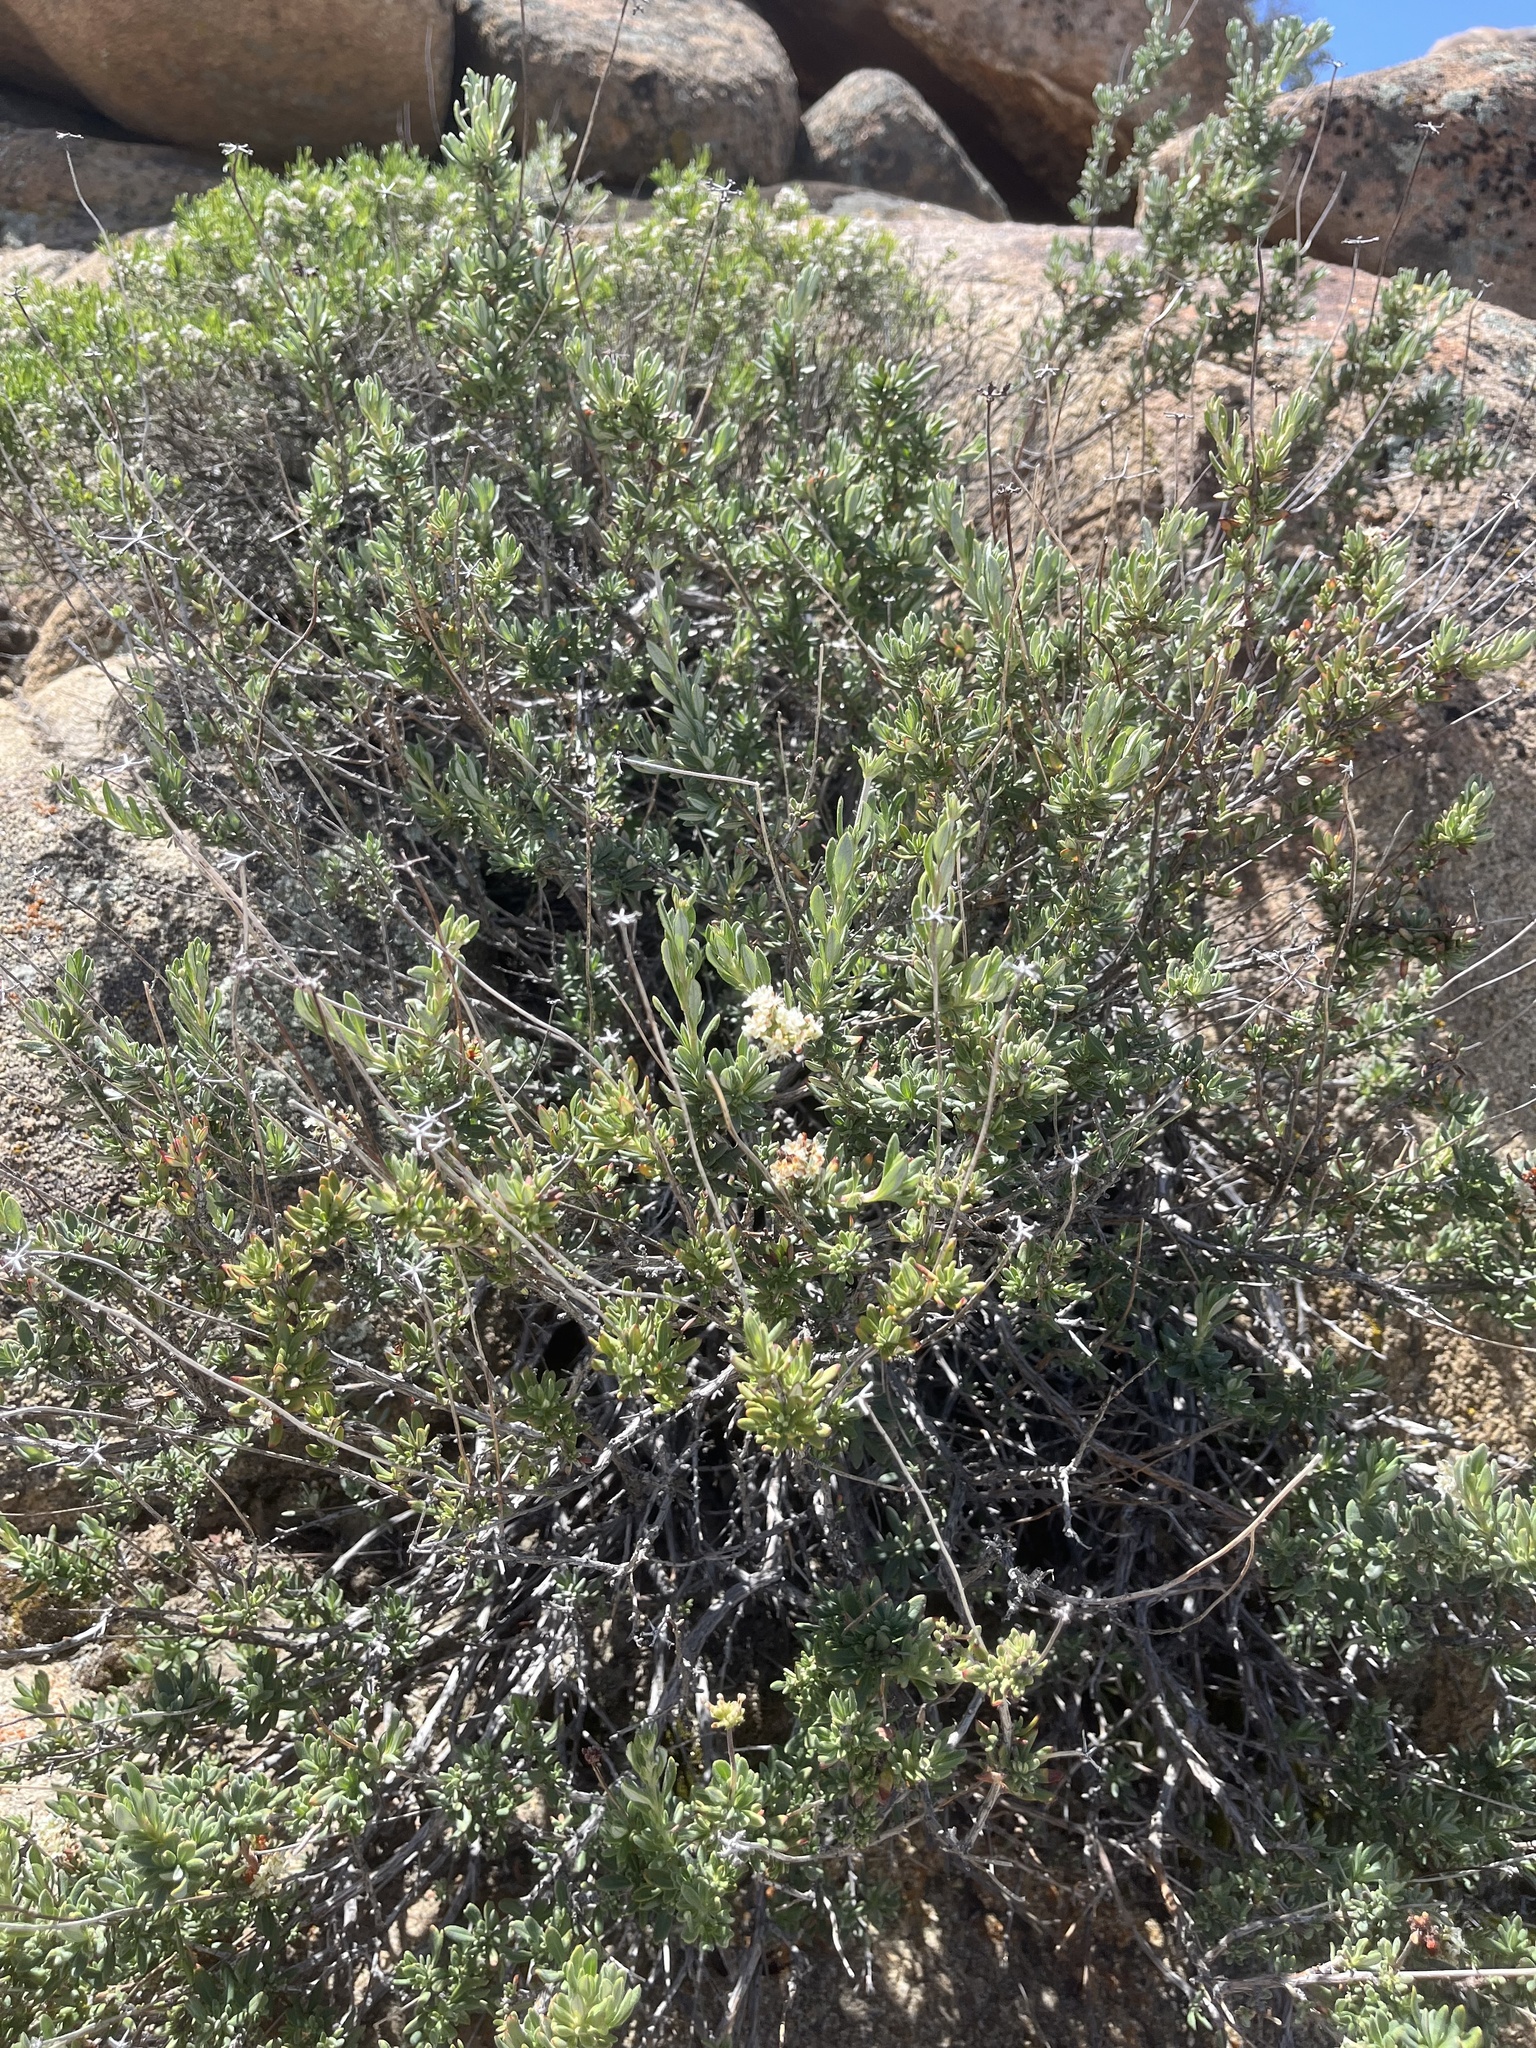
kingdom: Plantae
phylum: Tracheophyta
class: Magnoliopsida
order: Caryophyllales
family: Polygonaceae
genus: Eriogonum
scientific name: Eriogonum fasciculatum
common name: California wild buckwheat
